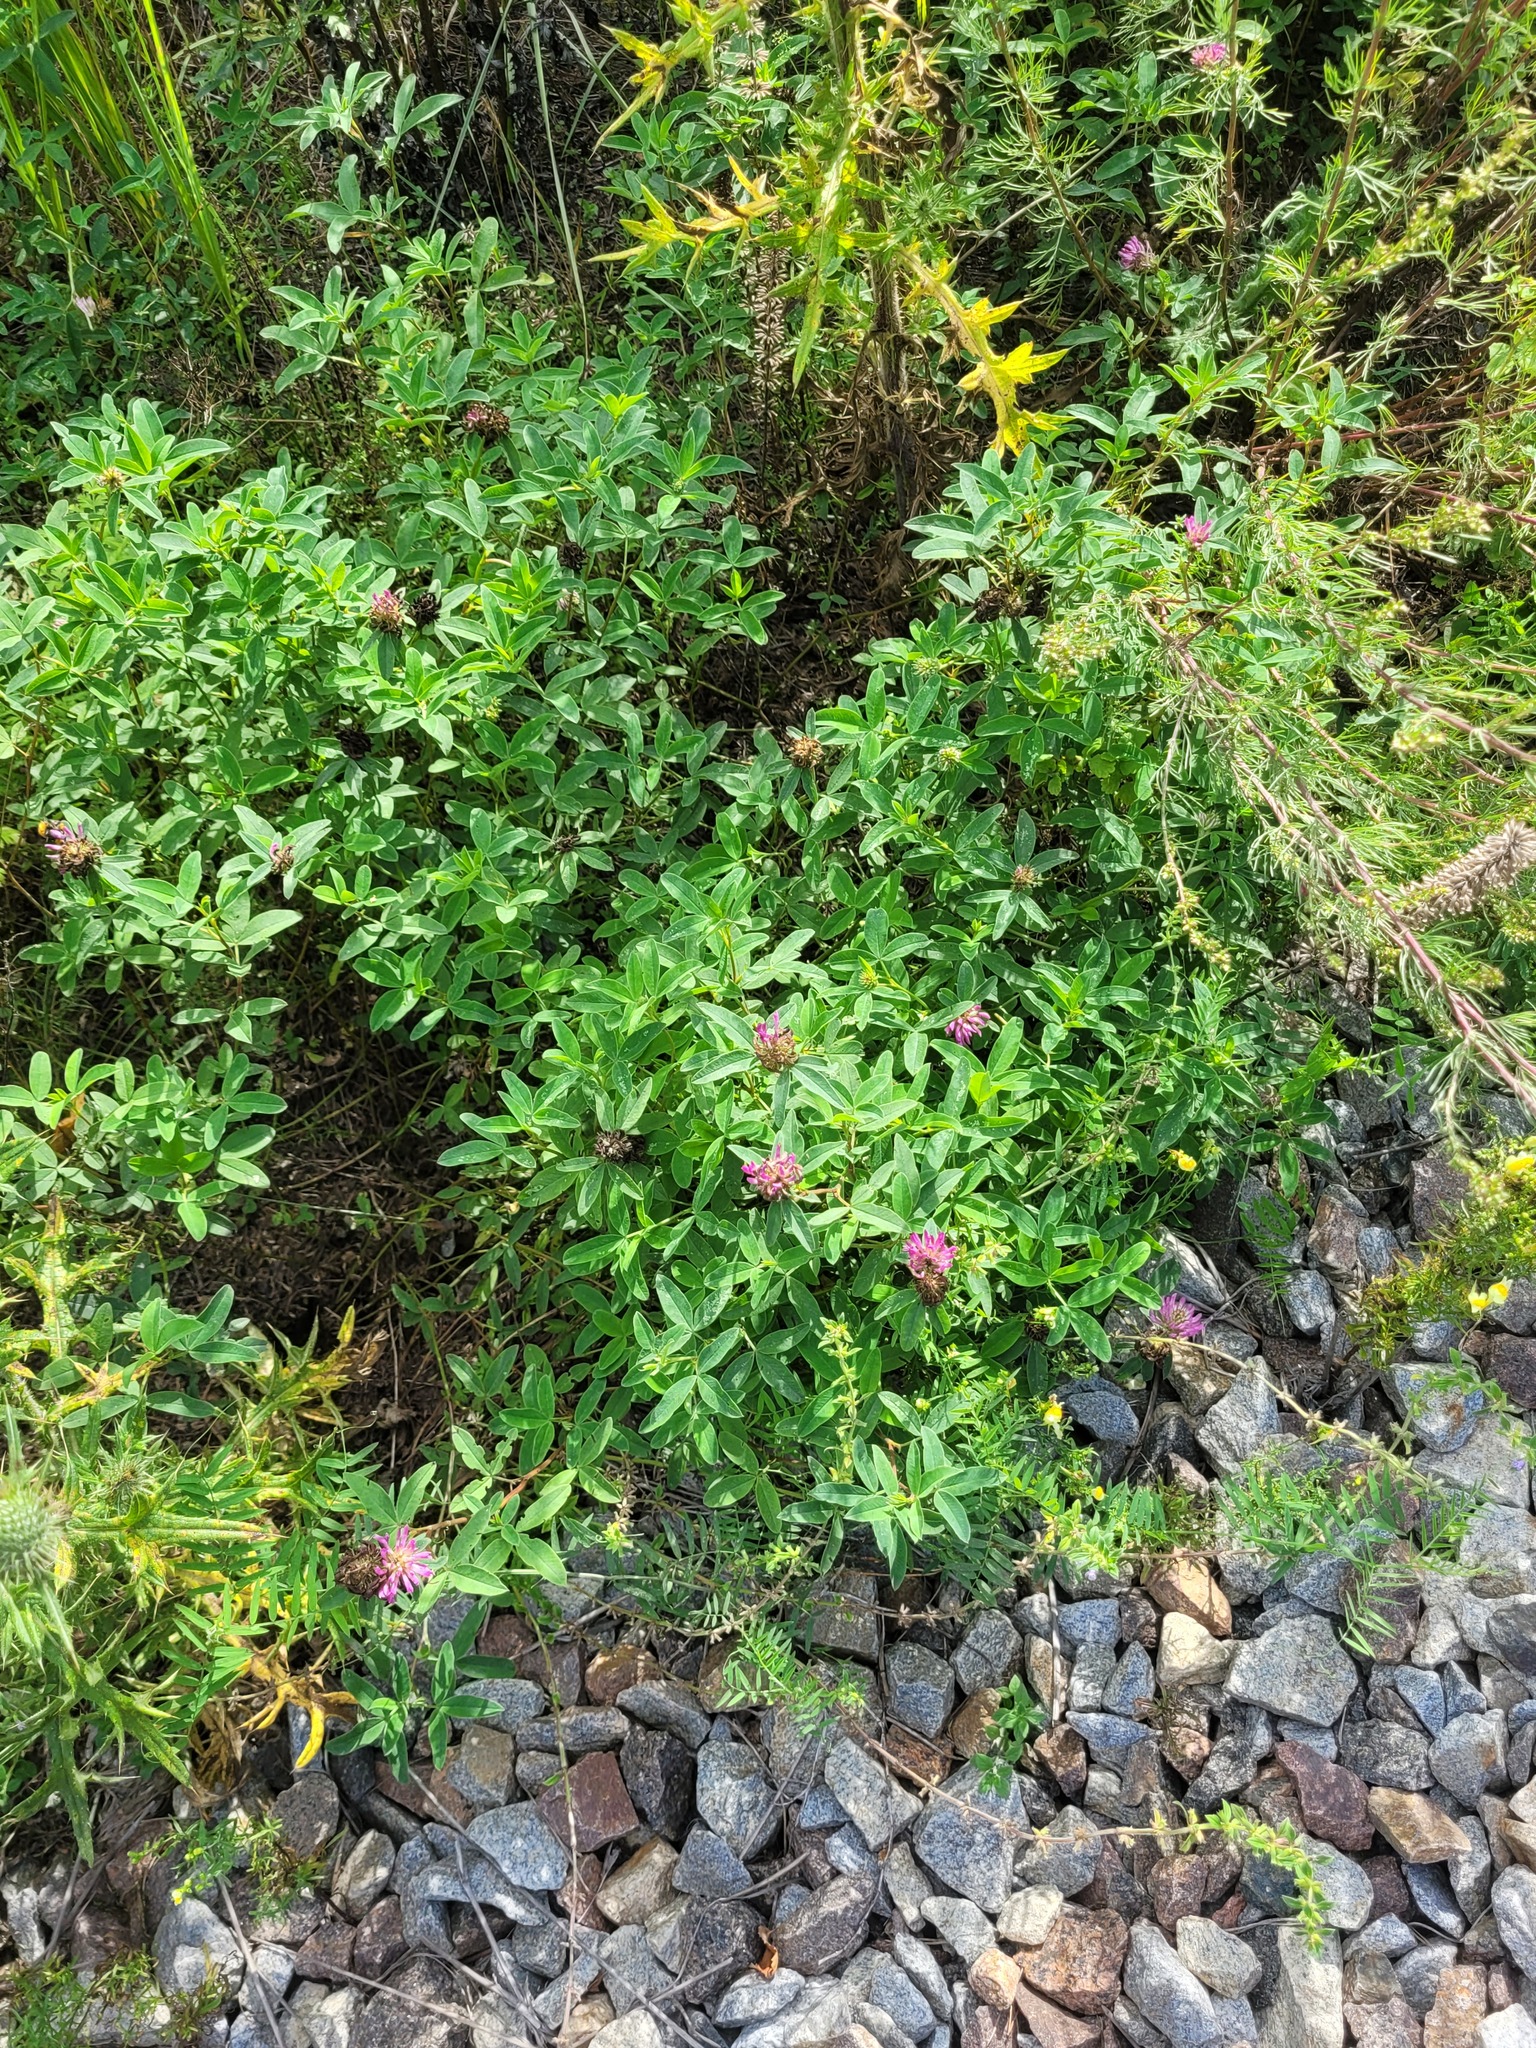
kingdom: Plantae
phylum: Tracheophyta
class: Magnoliopsida
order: Fabales
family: Fabaceae
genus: Trifolium
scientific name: Trifolium medium
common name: Zigzag clover
